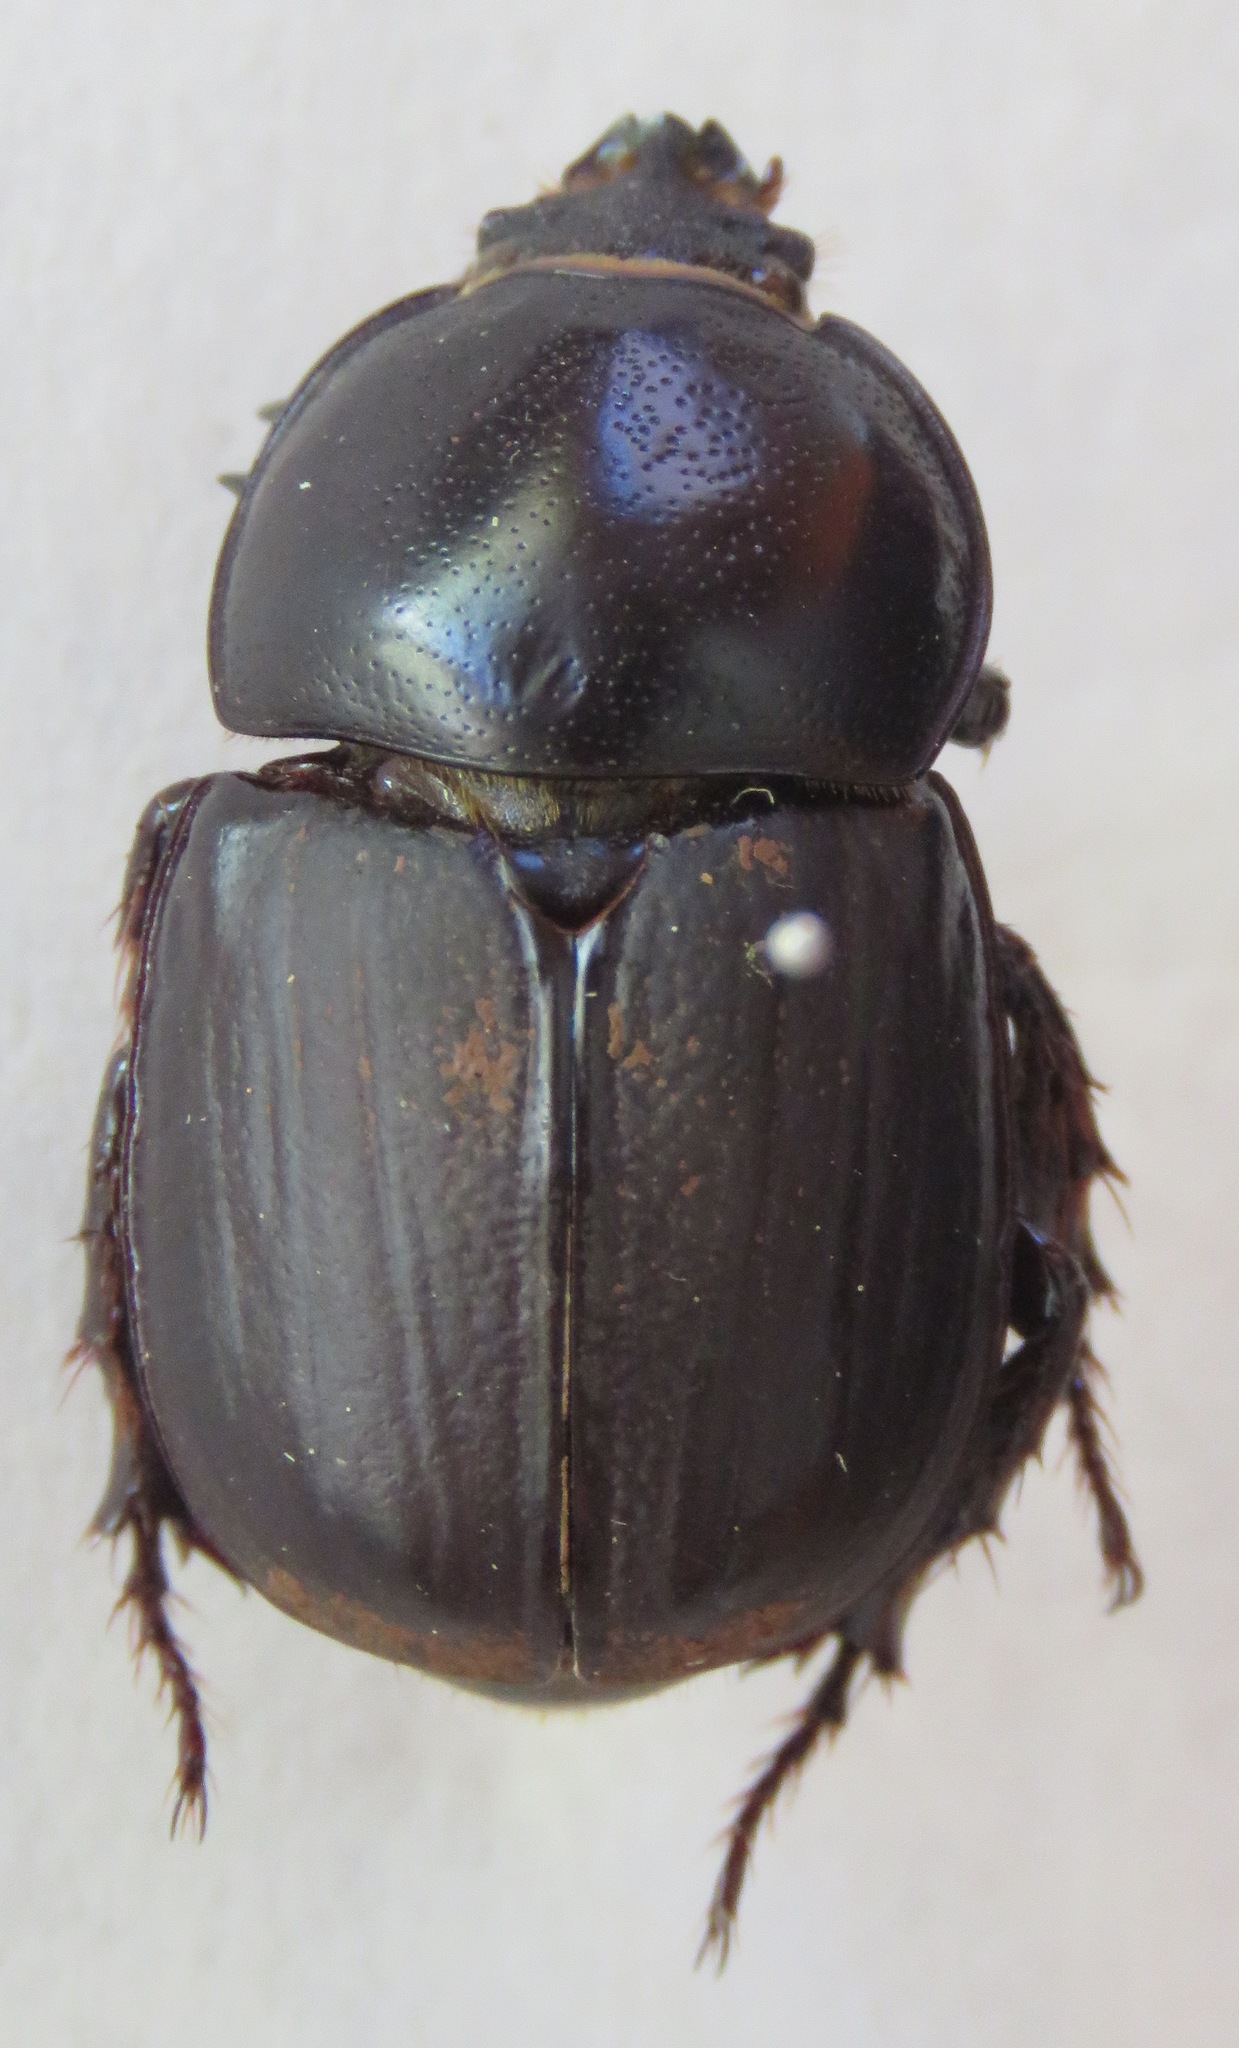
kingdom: Animalia
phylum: Arthropoda
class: Insecta
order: Coleoptera
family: Scarabaeidae
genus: Diloboderus
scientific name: Diloboderus abderus
